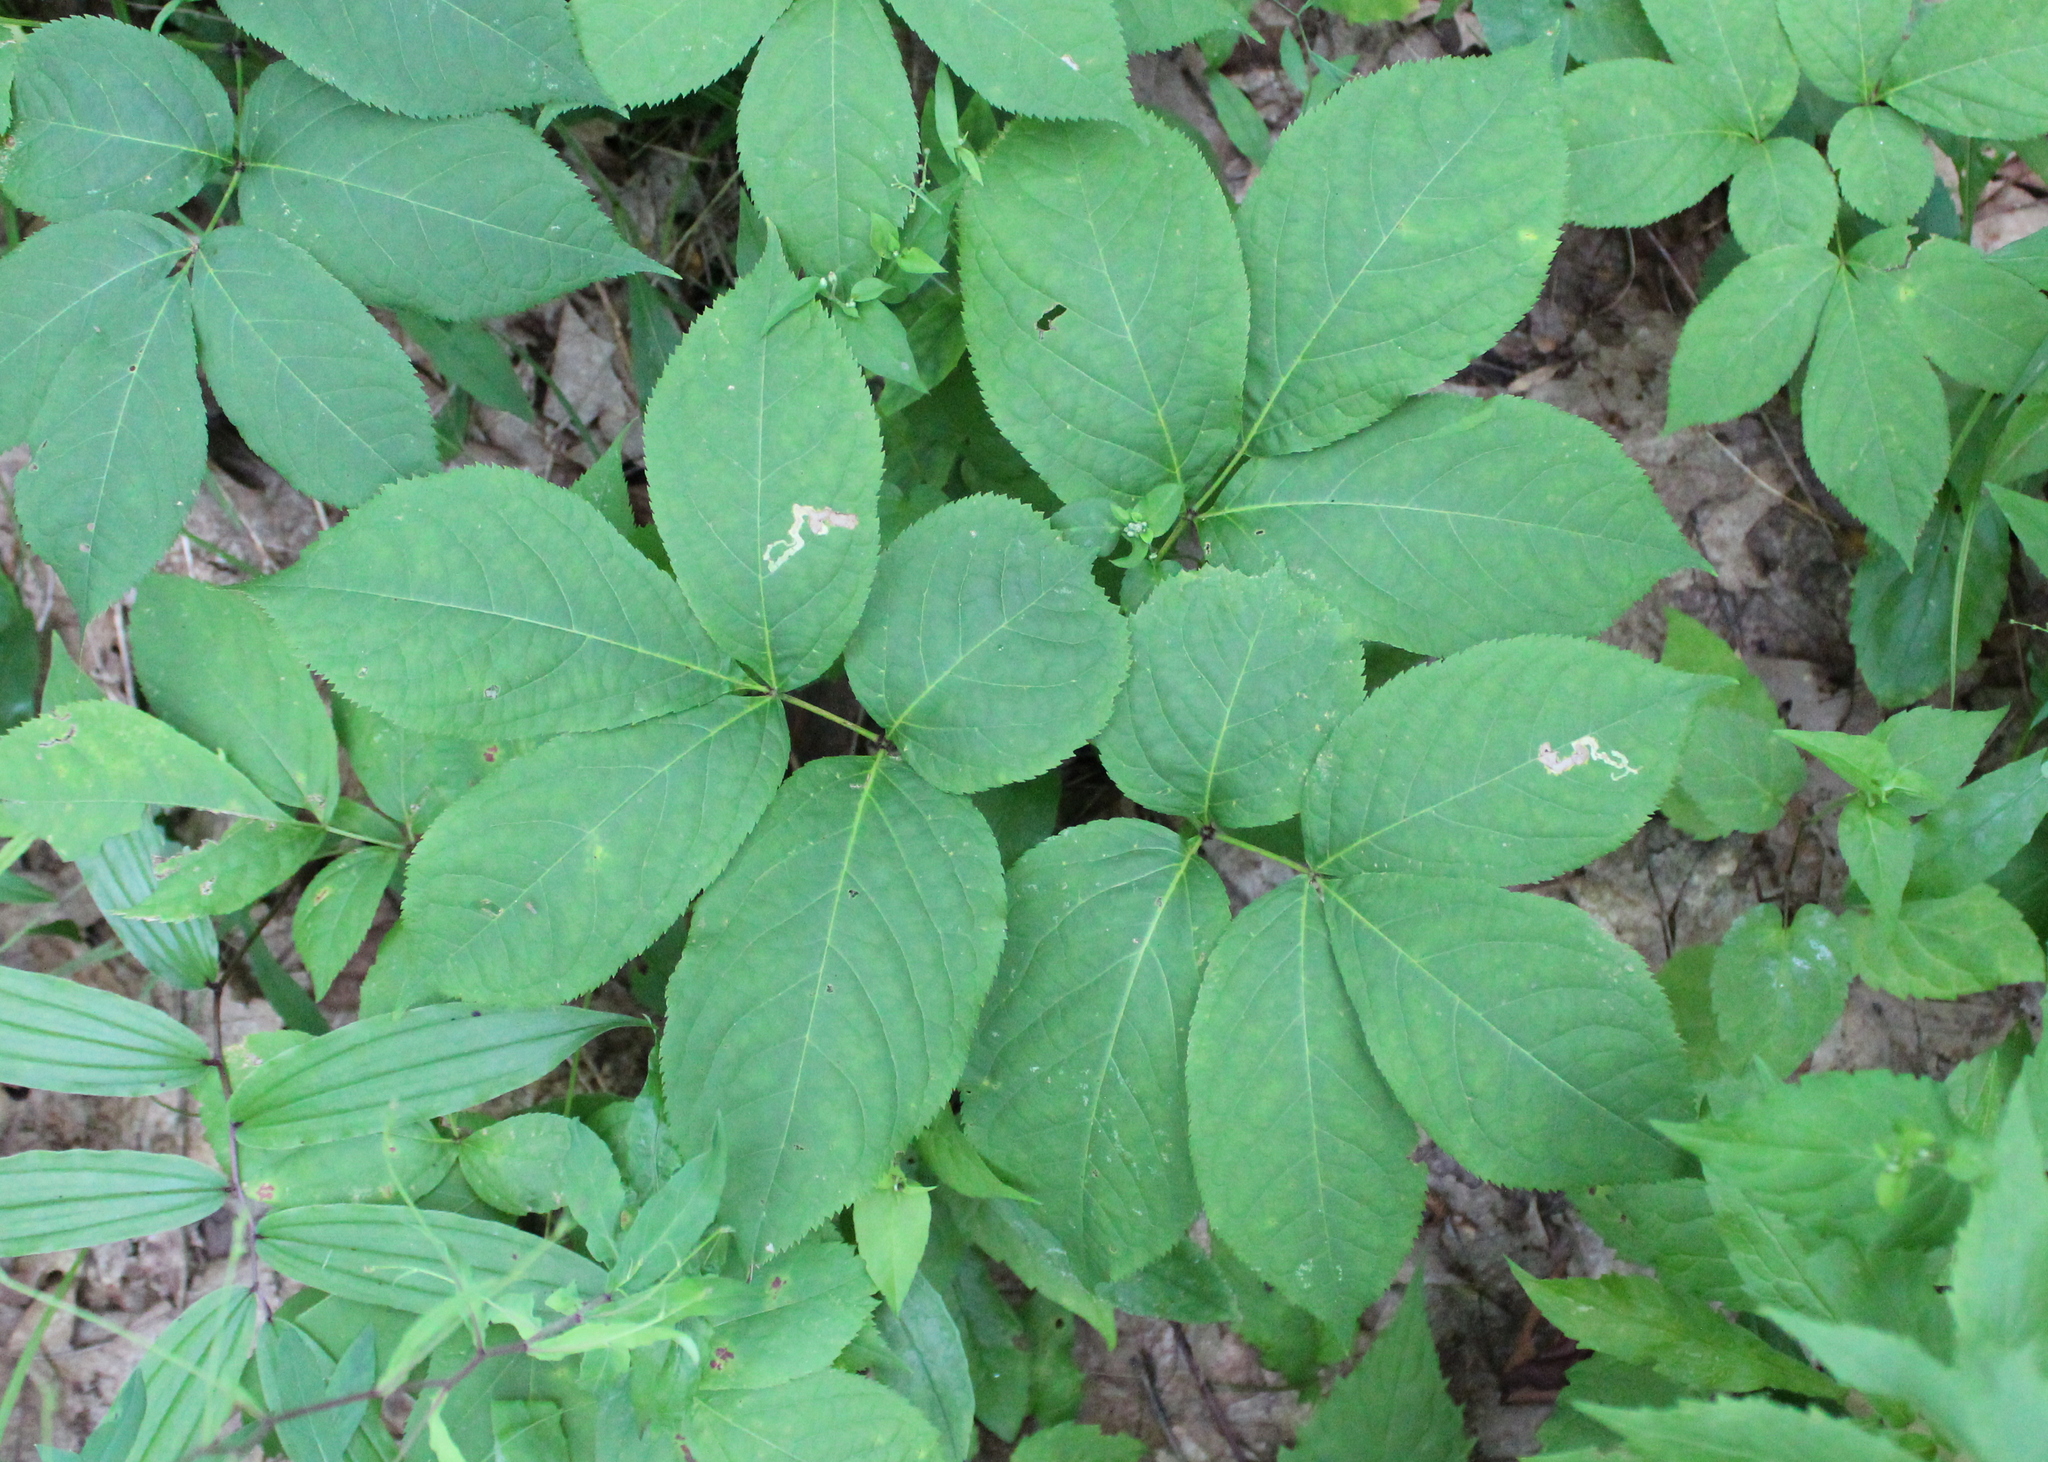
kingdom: Plantae
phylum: Tracheophyta
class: Magnoliopsida
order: Apiales
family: Araliaceae
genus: Aralia
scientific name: Aralia nudicaulis
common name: Wild sarsaparilla
